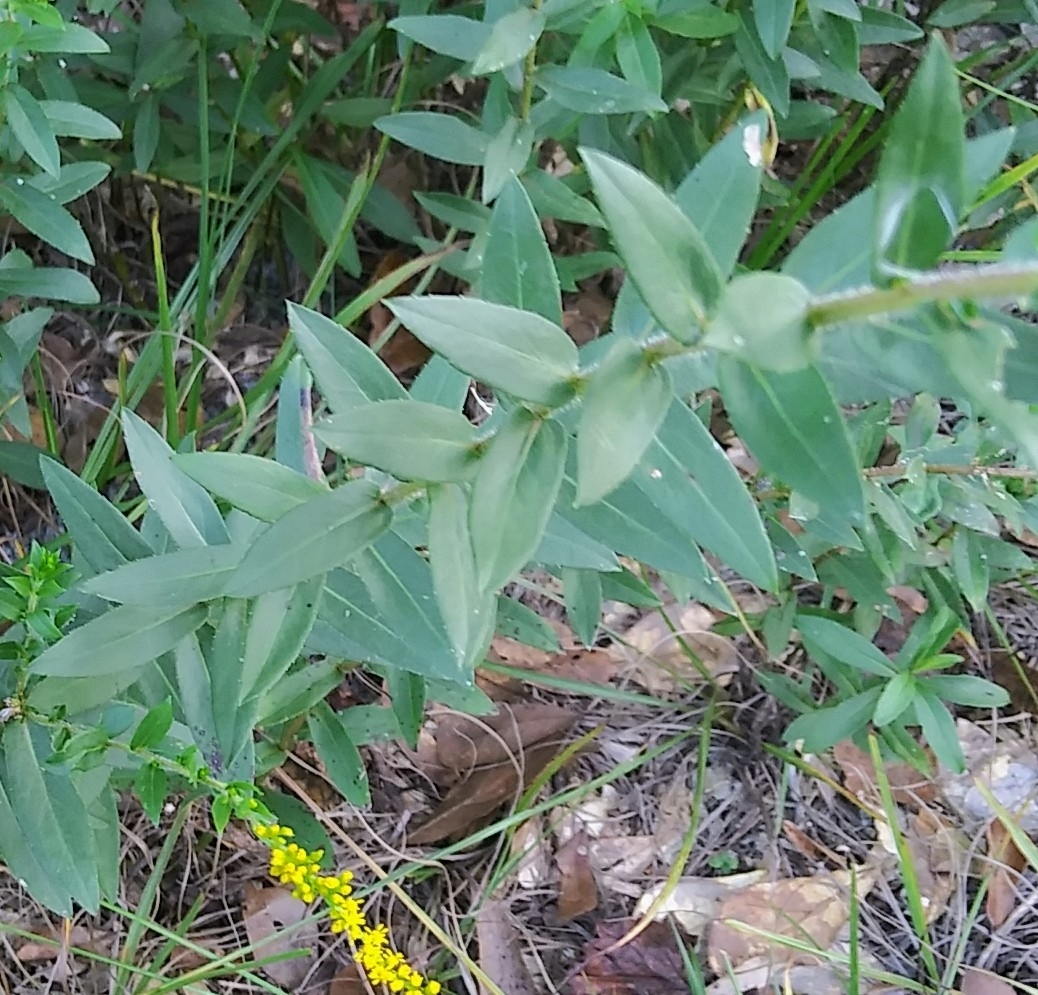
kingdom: Plantae
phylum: Tracheophyta
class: Magnoliopsida
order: Asterales
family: Asteraceae
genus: Solidago
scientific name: Solidago fistulosa
